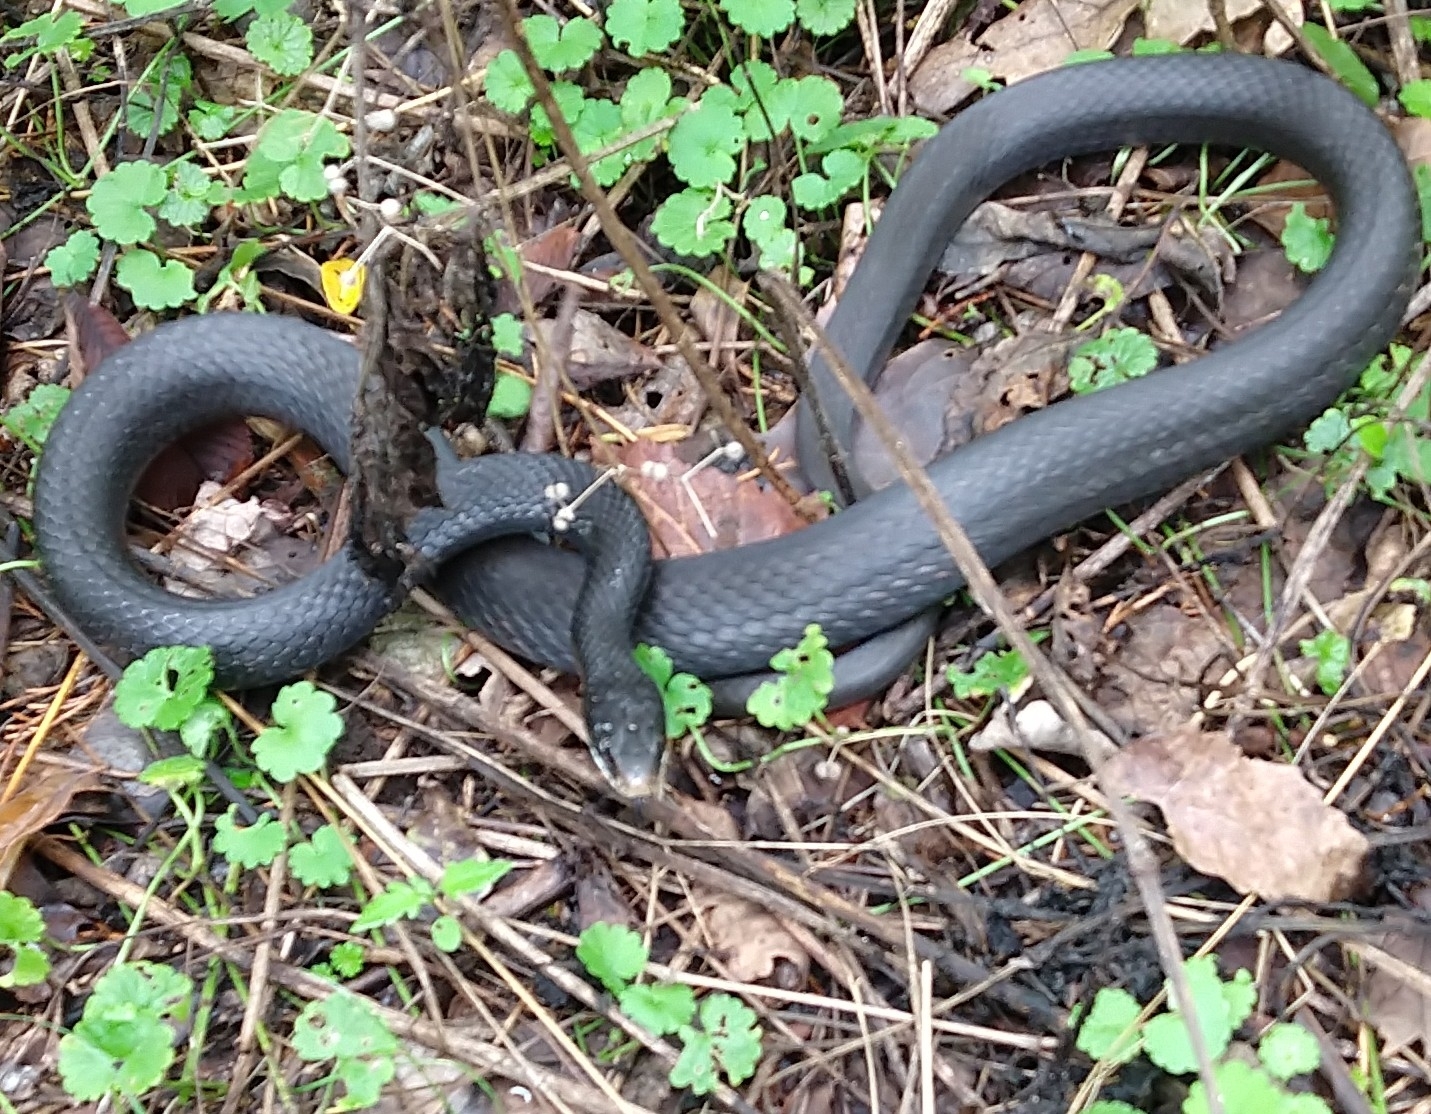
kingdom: Animalia
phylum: Chordata
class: Squamata
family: Colubridae
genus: Coluber
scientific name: Coluber constrictor
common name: Eastern racer
